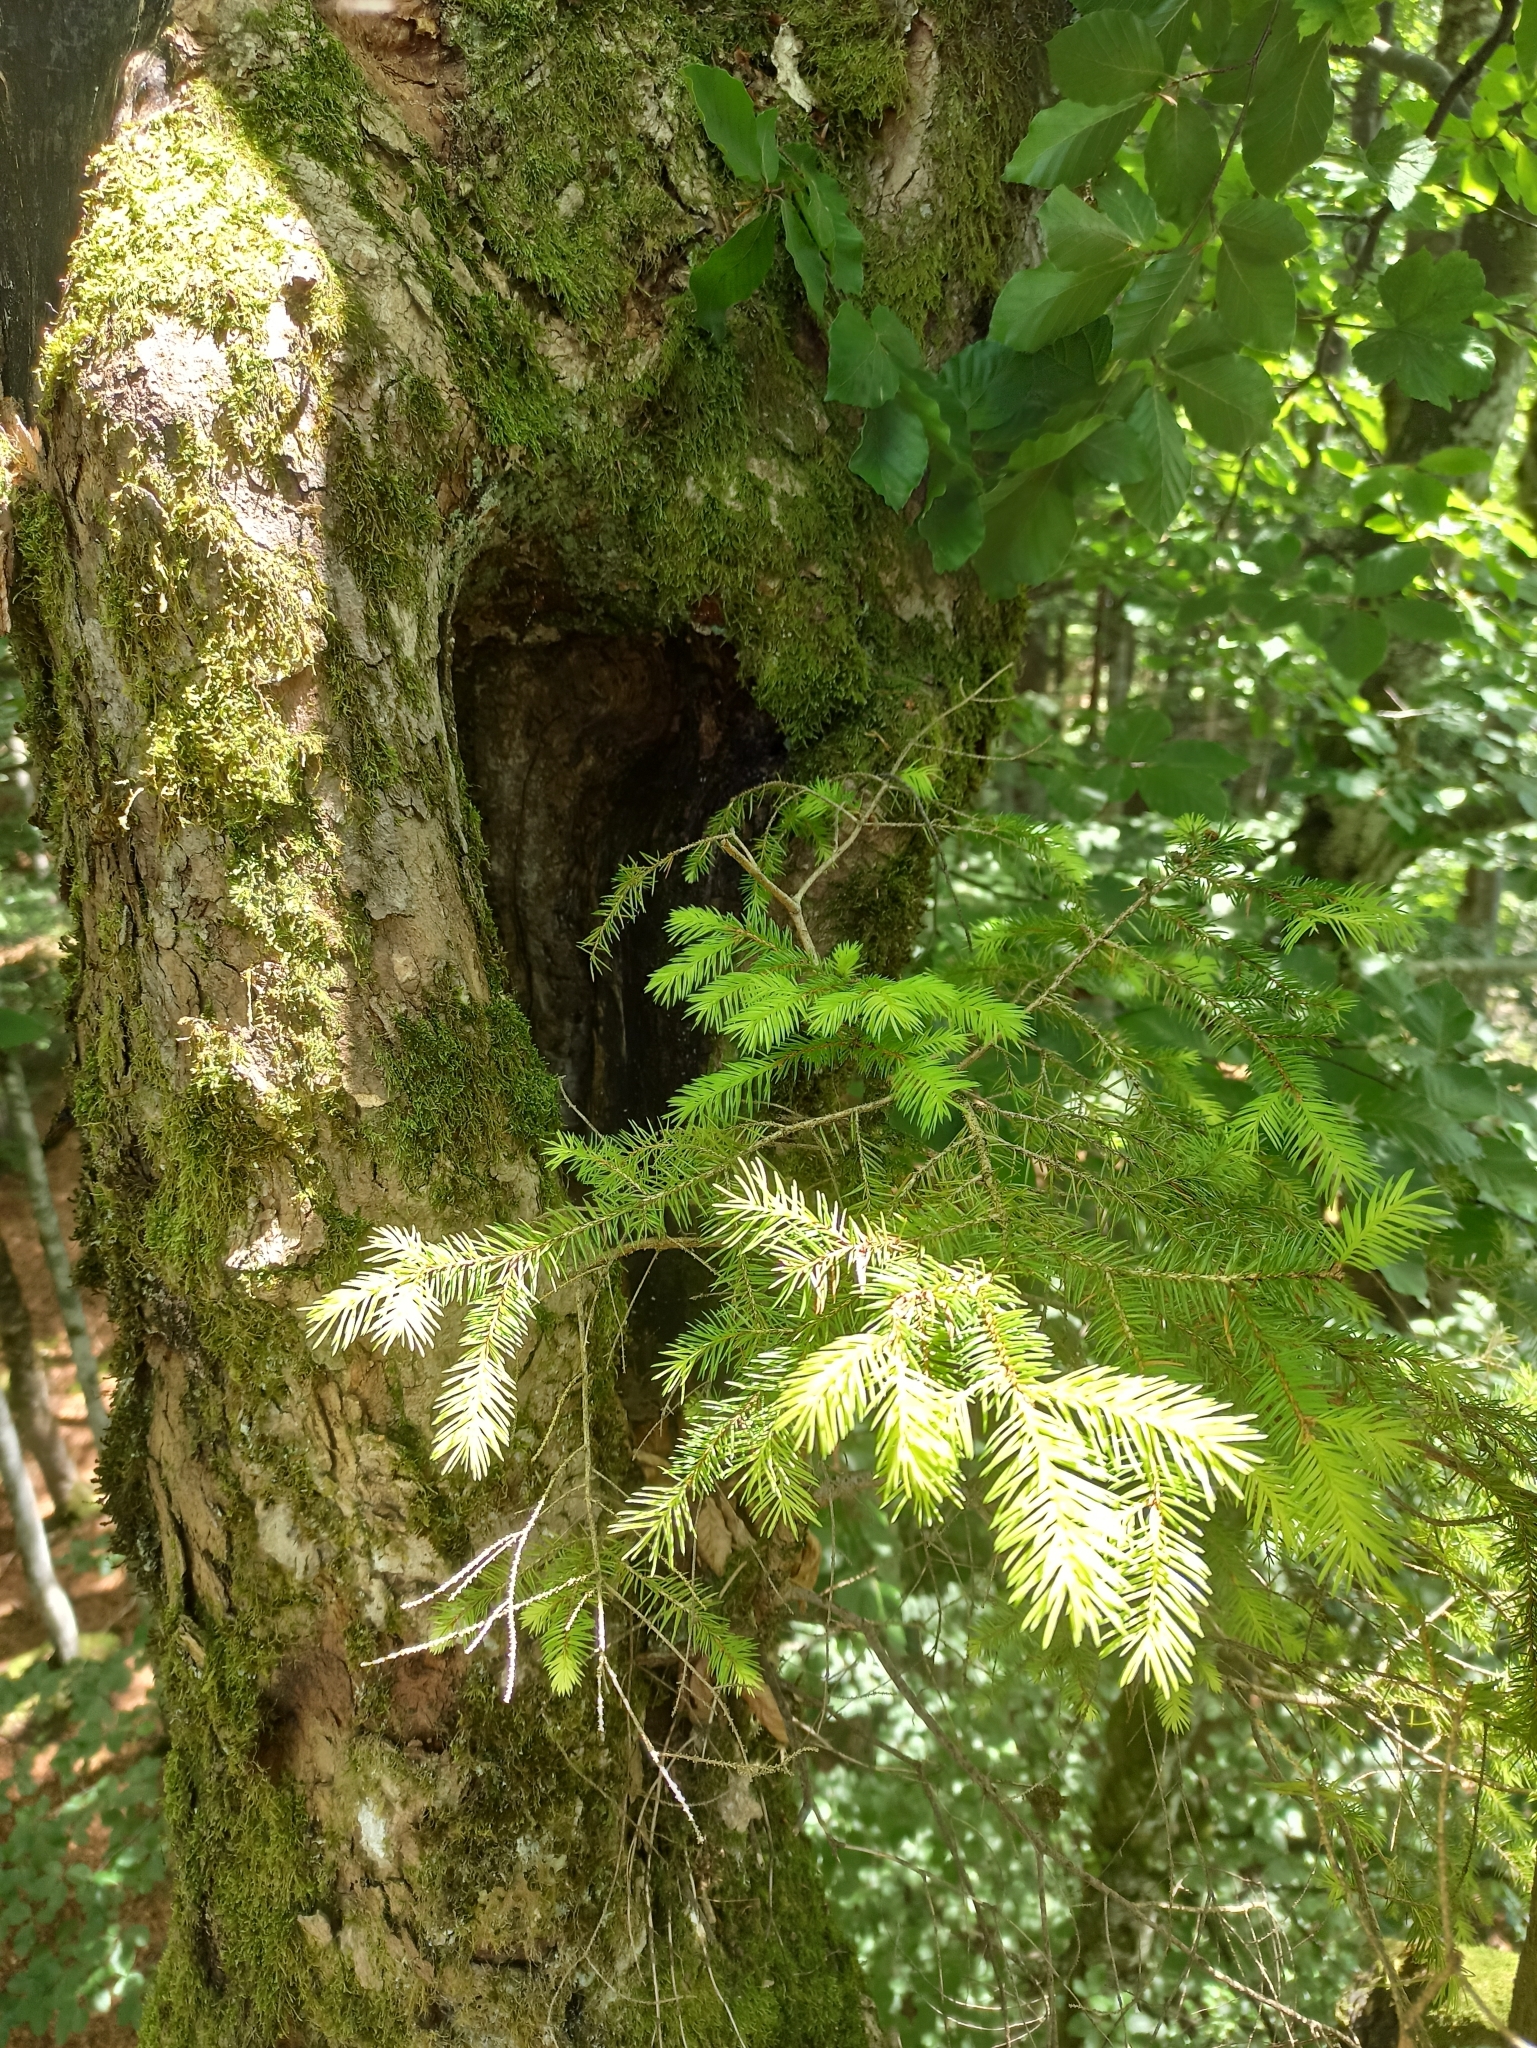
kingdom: Plantae
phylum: Tracheophyta
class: Pinopsida
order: Pinales
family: Pinaceae
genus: Picea
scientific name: Picea abies
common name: Norway spruce
